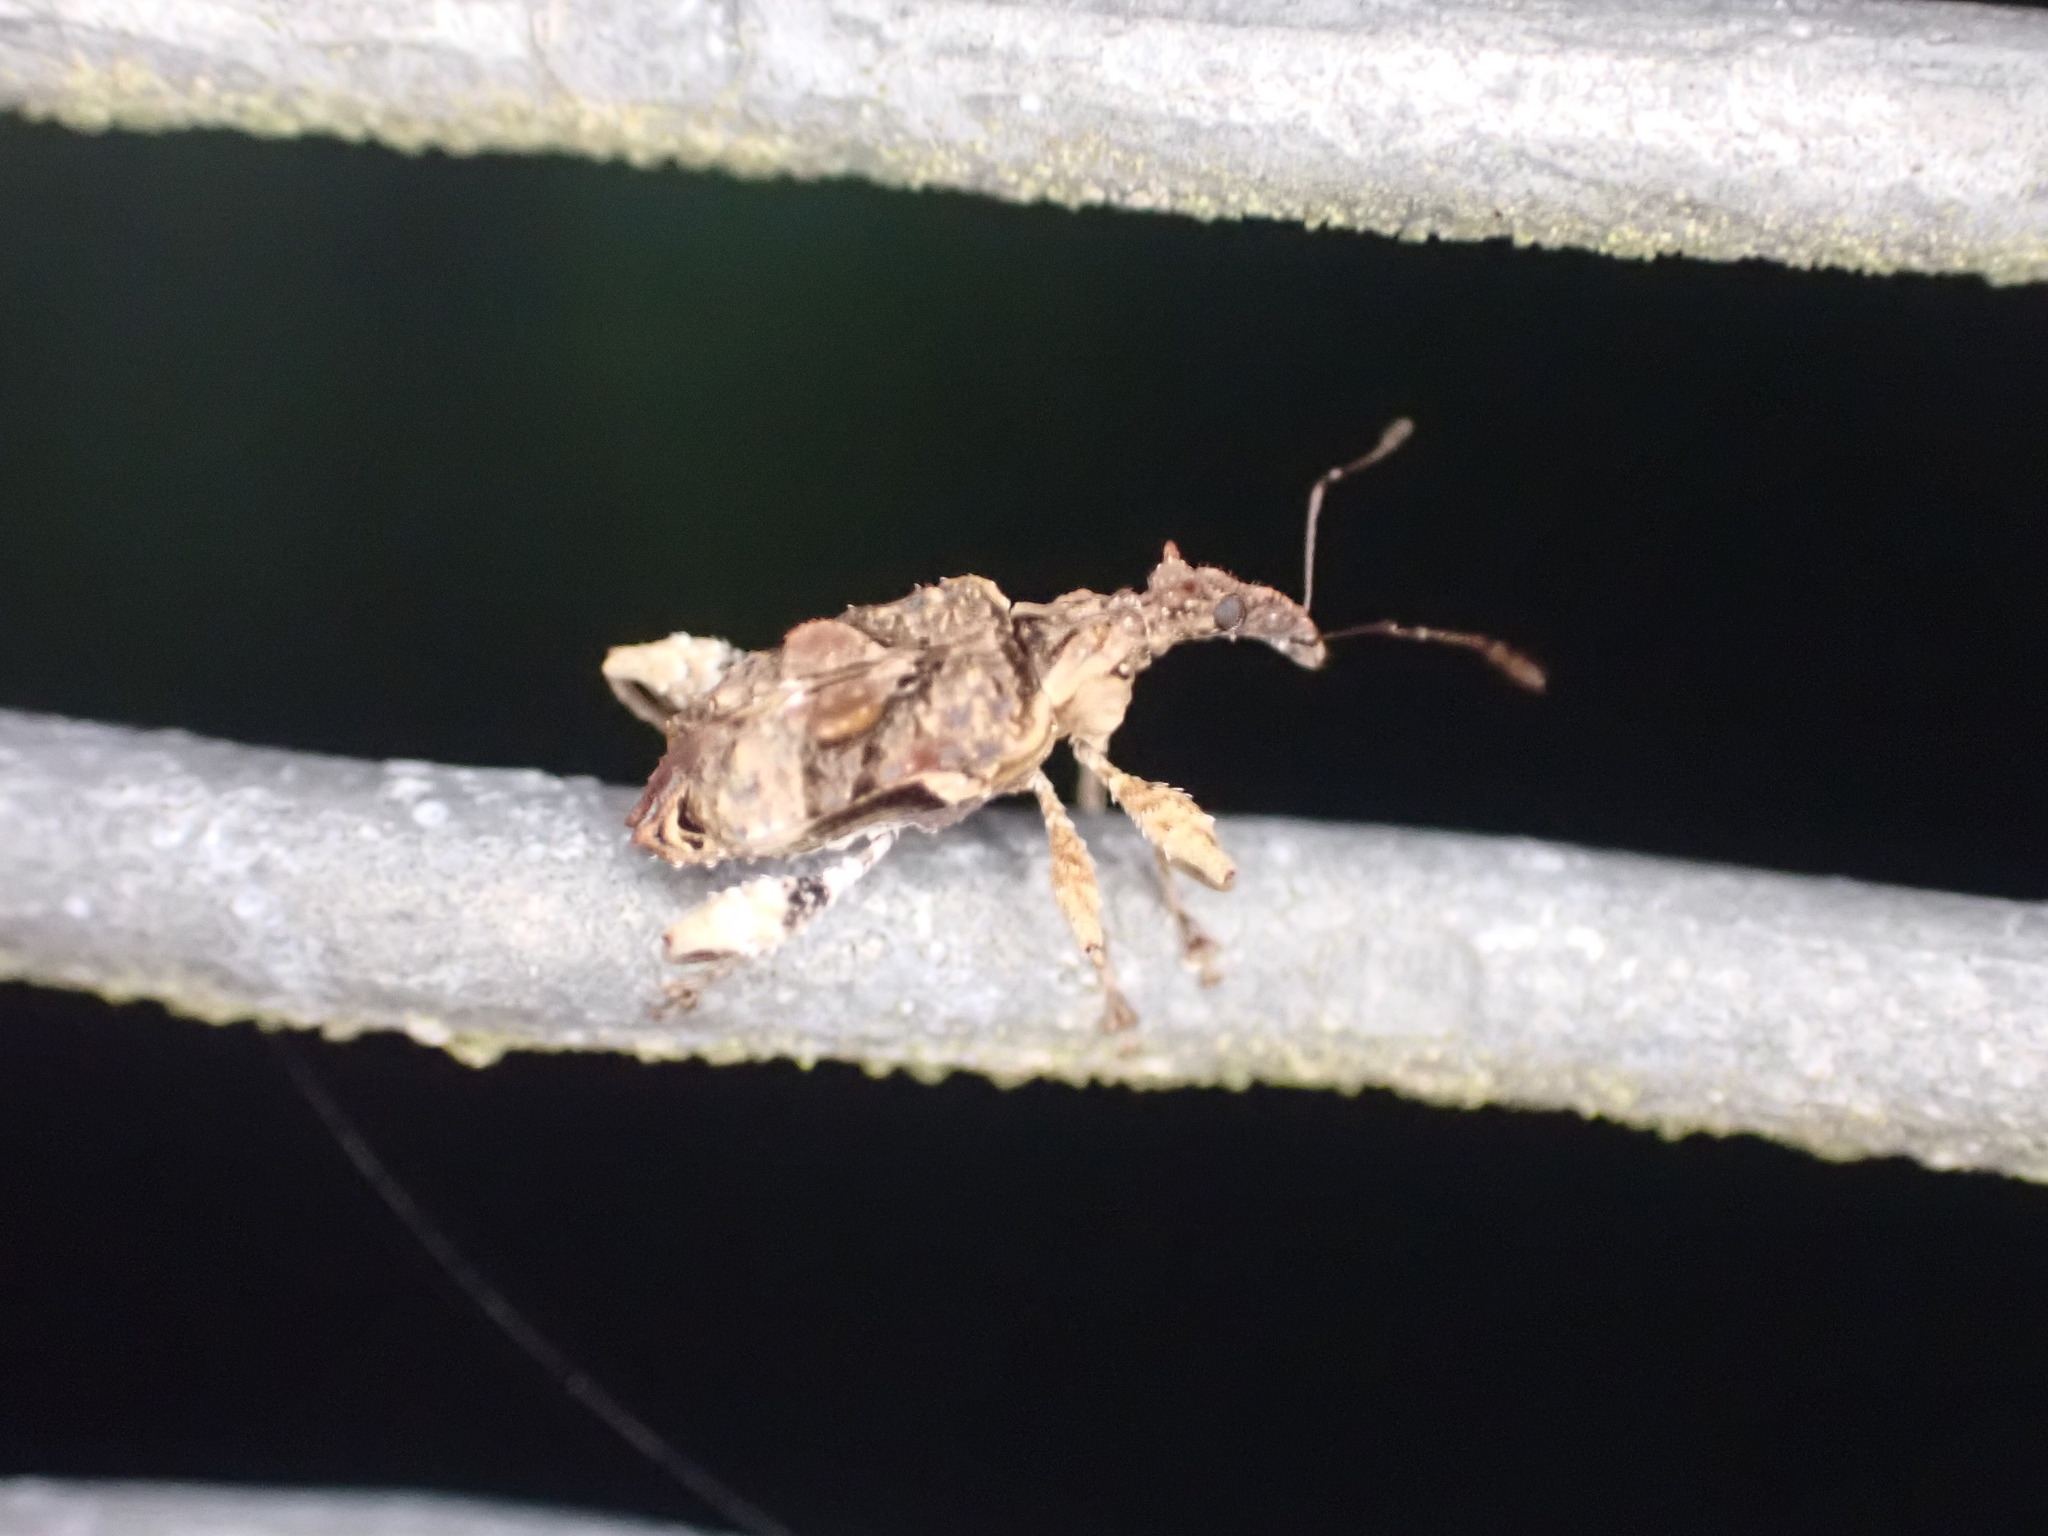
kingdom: Animalia
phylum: Arthropoda
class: Insecta
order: Coleoptera
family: Curculionidae
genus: Stephanorhynchus
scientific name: Stephanorhynchus curvipes
